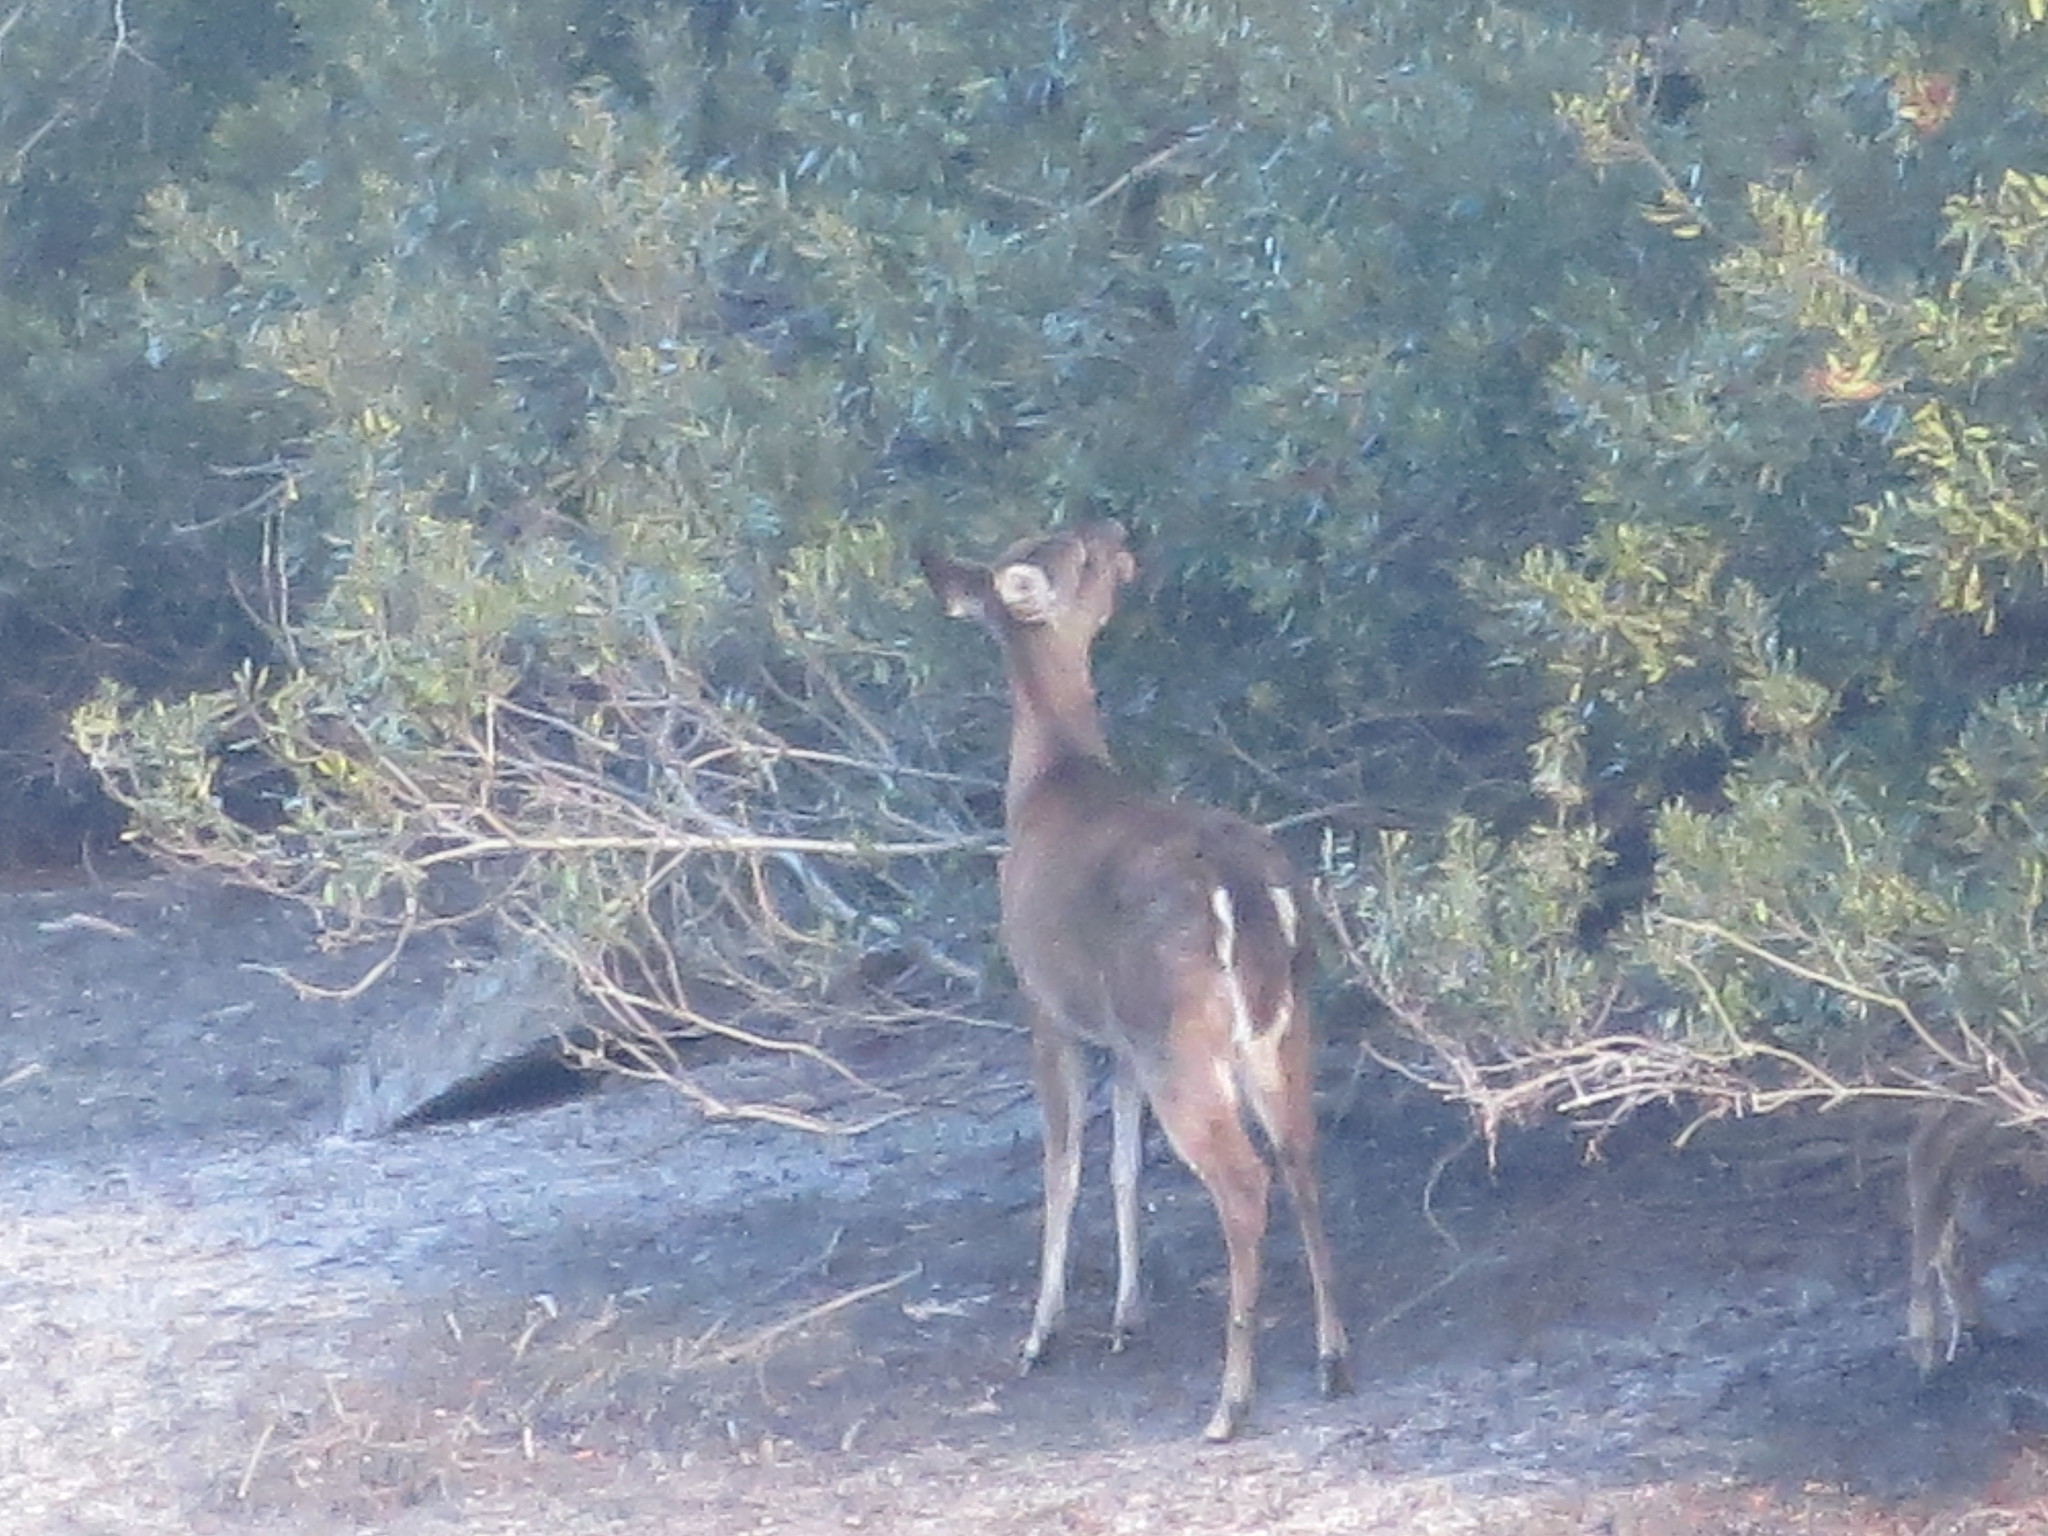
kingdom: Animalia
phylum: Chordata
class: Mammalia
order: Artiodactyla
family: Cervidae
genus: Odocoileus
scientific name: Odocoileus virginianus
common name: White-tailed deer
